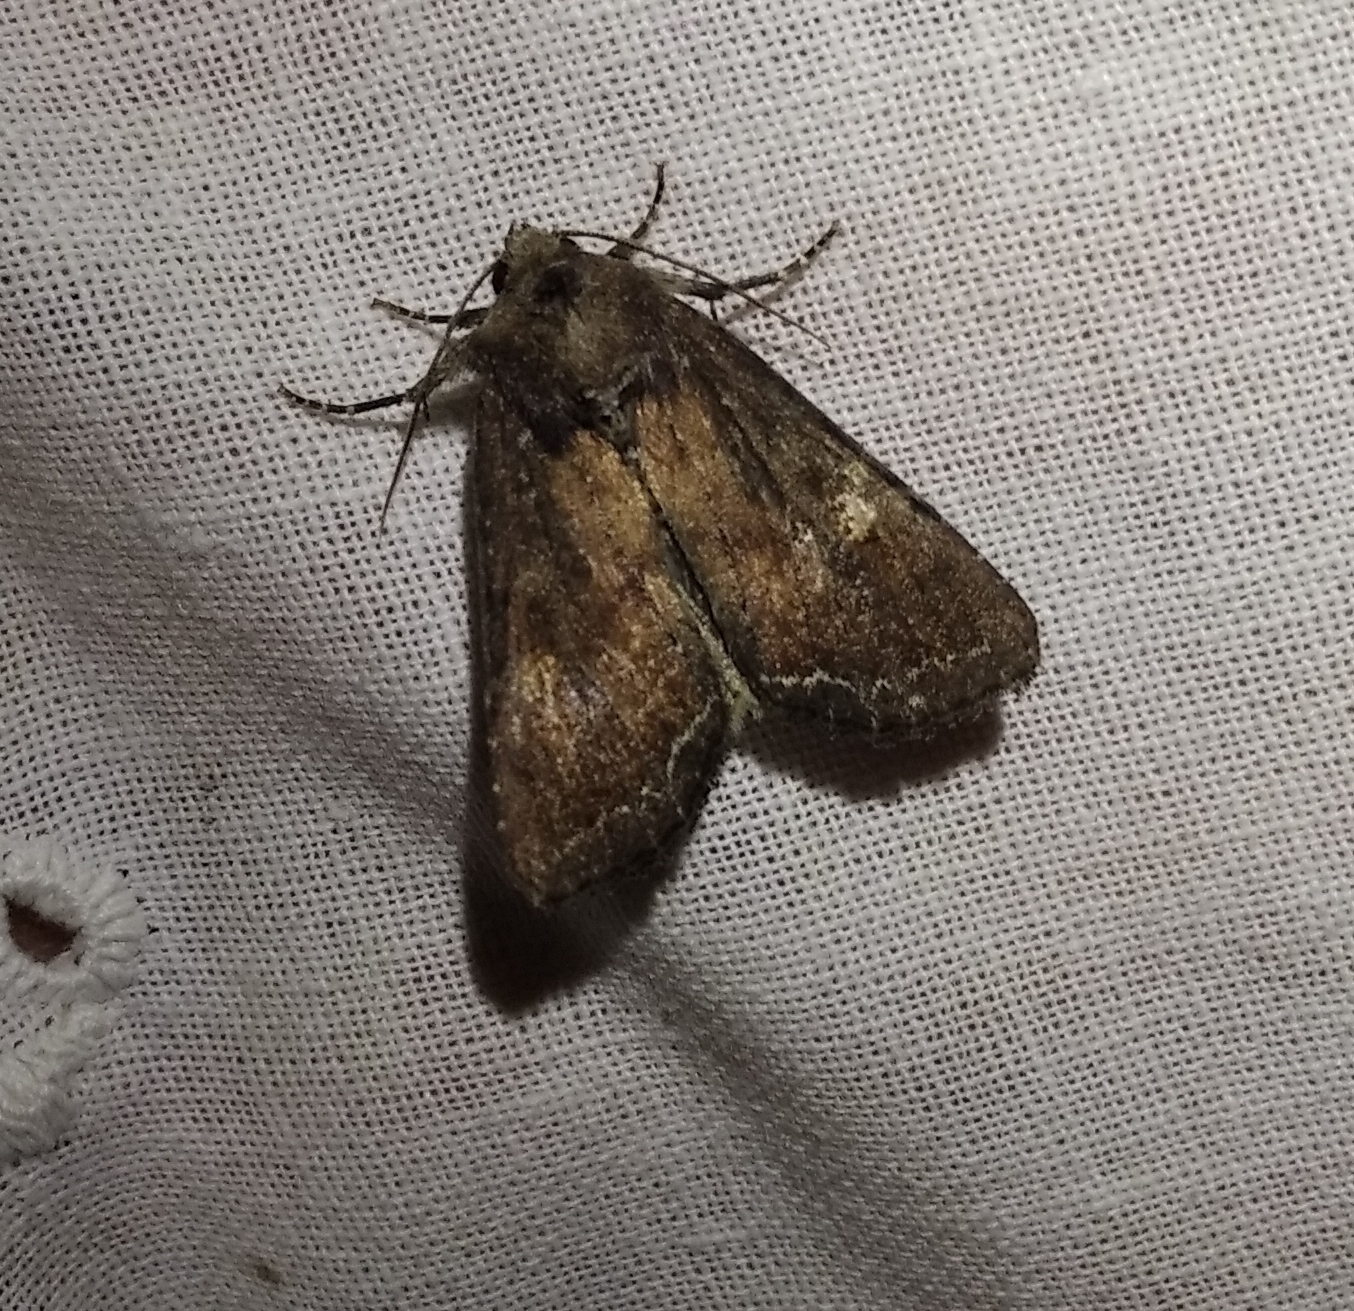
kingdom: Animalia
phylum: Arthropoda
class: Insecta
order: Lepidoptera
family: Noctuidae
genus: Lacanobia
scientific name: Lacanobia oleracea
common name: Bright-line brown-eye
